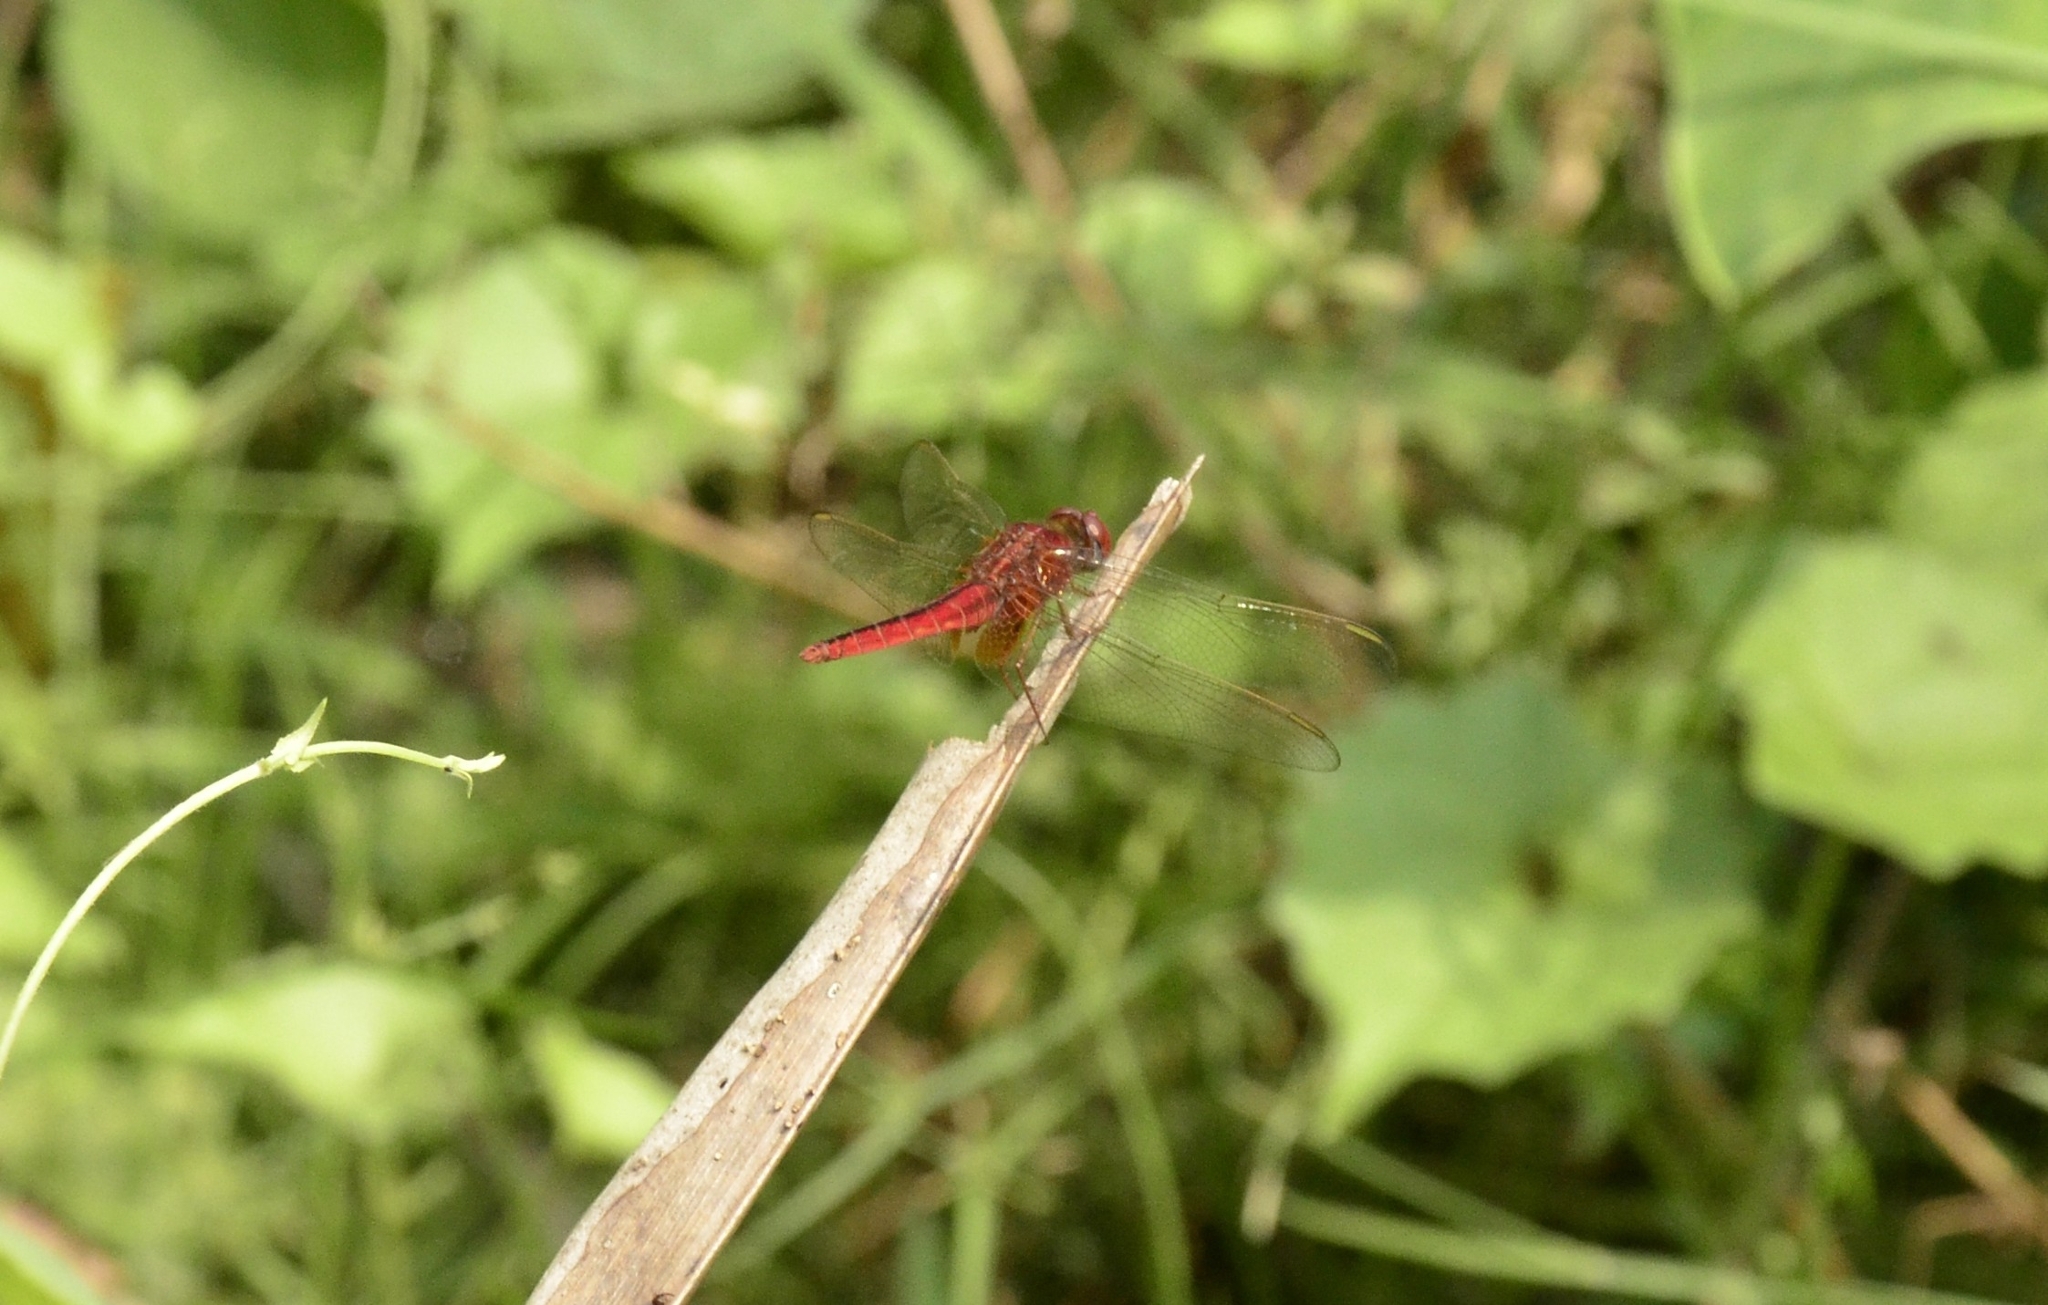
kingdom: Animalia
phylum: Arthropoda
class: Insecta
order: Odonata
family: Libellulidae
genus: Crocothemis
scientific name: Crocothemis servilia
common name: Scarlet skimmer
